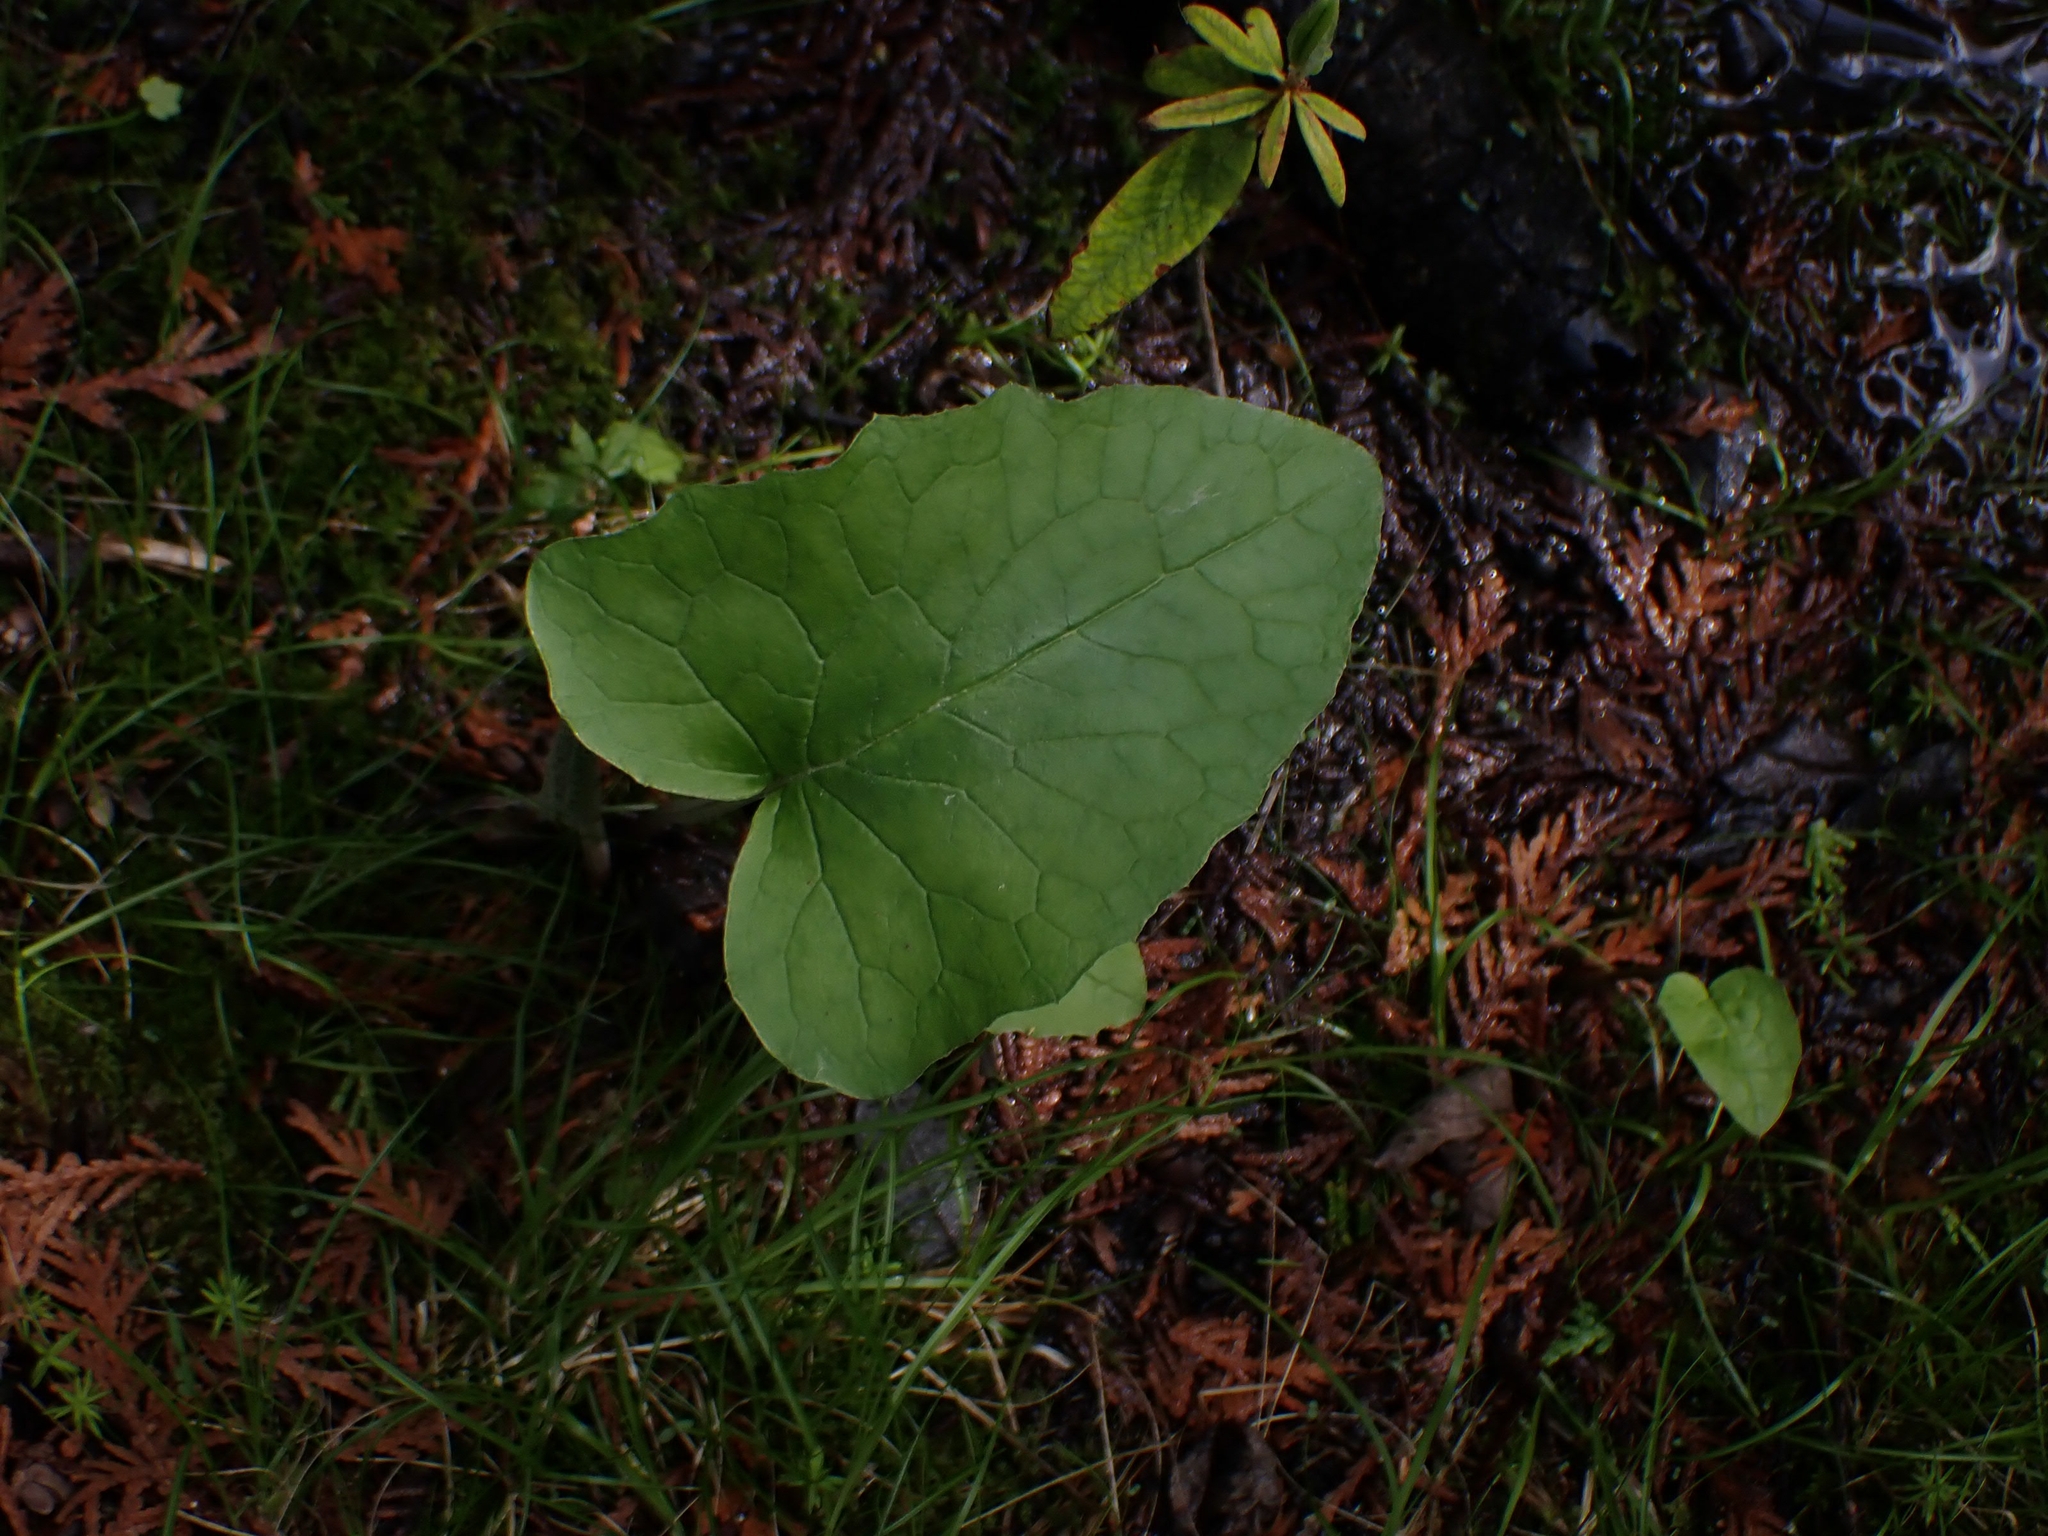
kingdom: Plantae
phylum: Tracheophyta
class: Magnoliopsida
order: Asterales
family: Asteraceae
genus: Petasites
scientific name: Petasites frigidus
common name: Arctic butterbur
